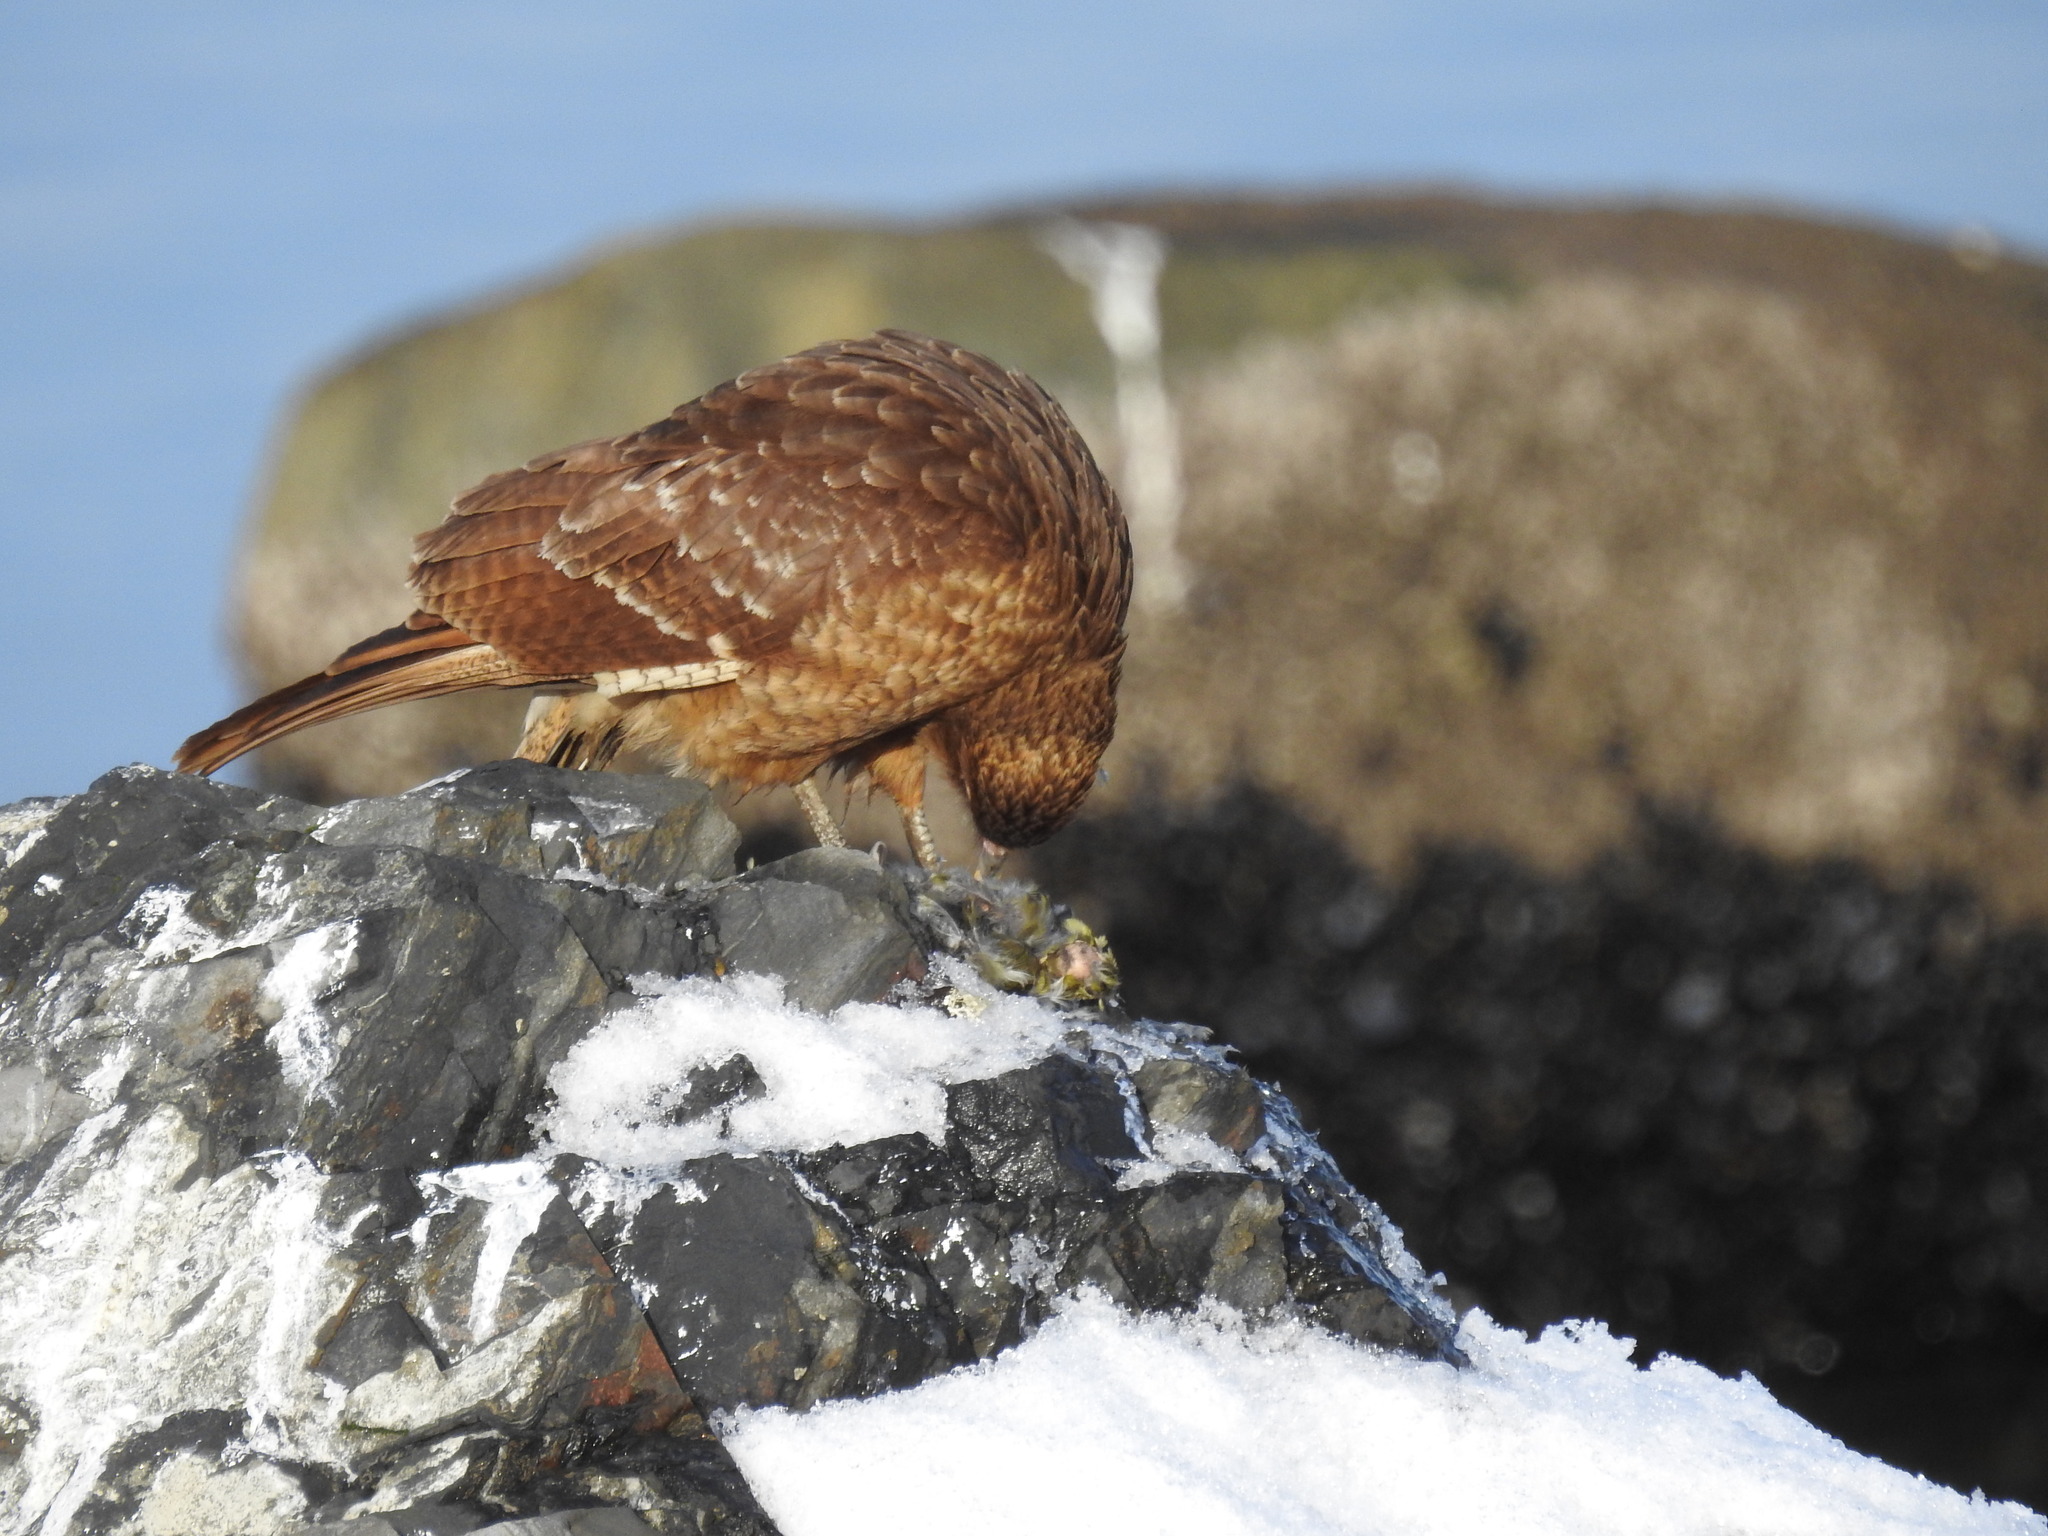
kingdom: Animalia
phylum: Chordata
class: Aves
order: Falconiformes
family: Falconidae
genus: Daptrius
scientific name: Daptrius
